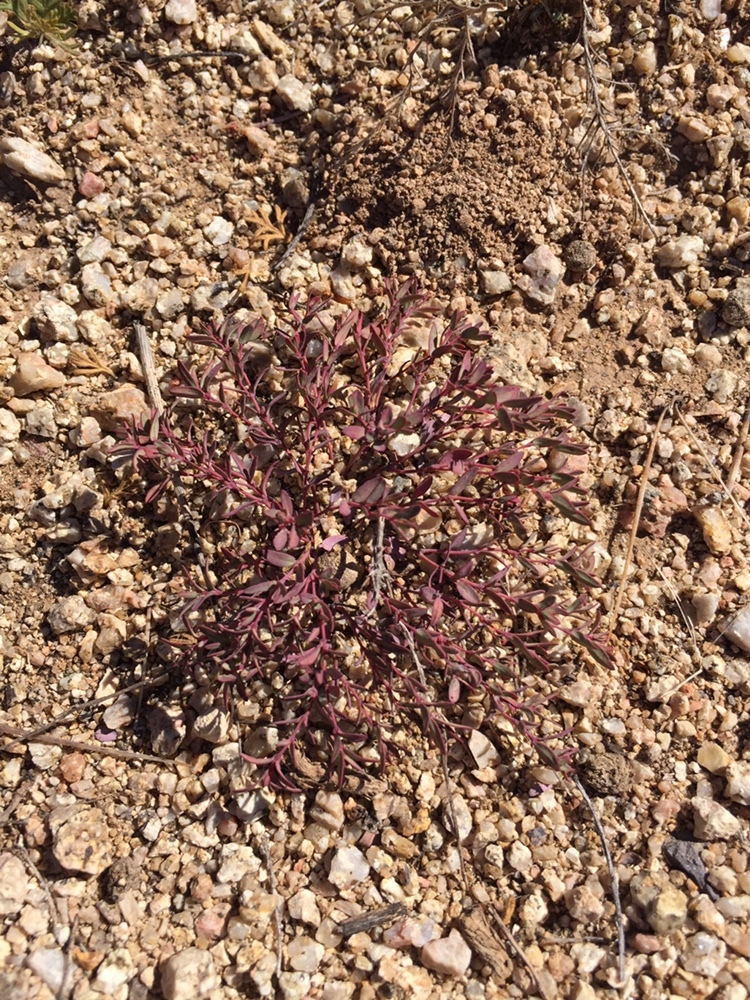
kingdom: Plantae
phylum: Tracheophyta
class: Magnoliopsida
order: Malpighiales
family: Euphorbiaceae
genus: Euphorbia
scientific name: Euphorbia fendleri
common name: Fendler's euphorbia
